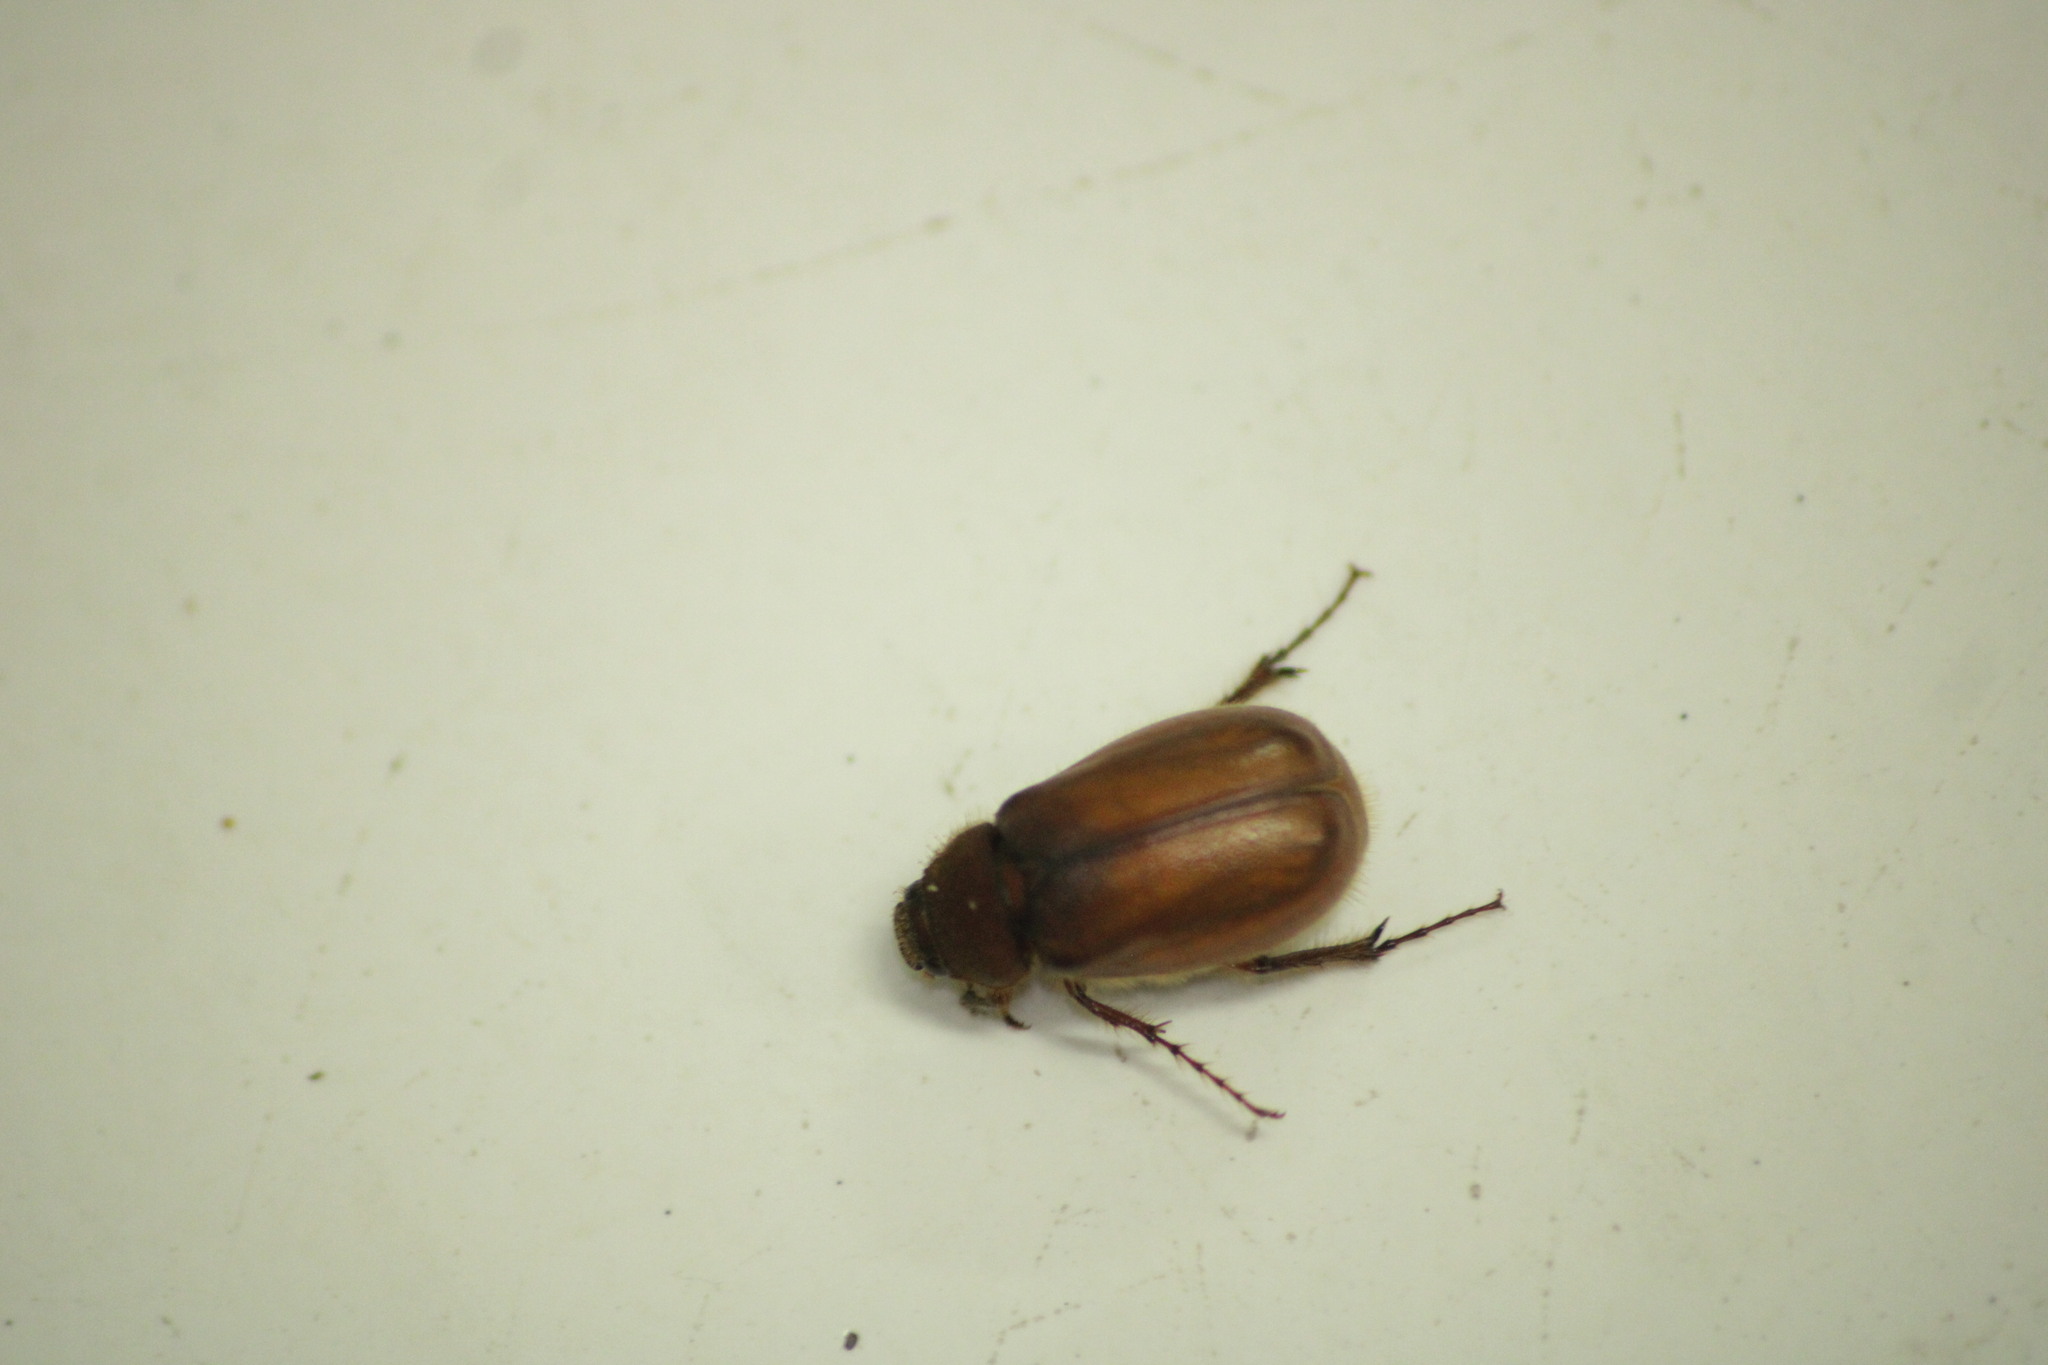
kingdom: Animalia
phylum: Arthropoda
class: Insecta
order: Coleoptera
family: Scarabaeidae
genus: Phyllophaga
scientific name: Phyllophaga
